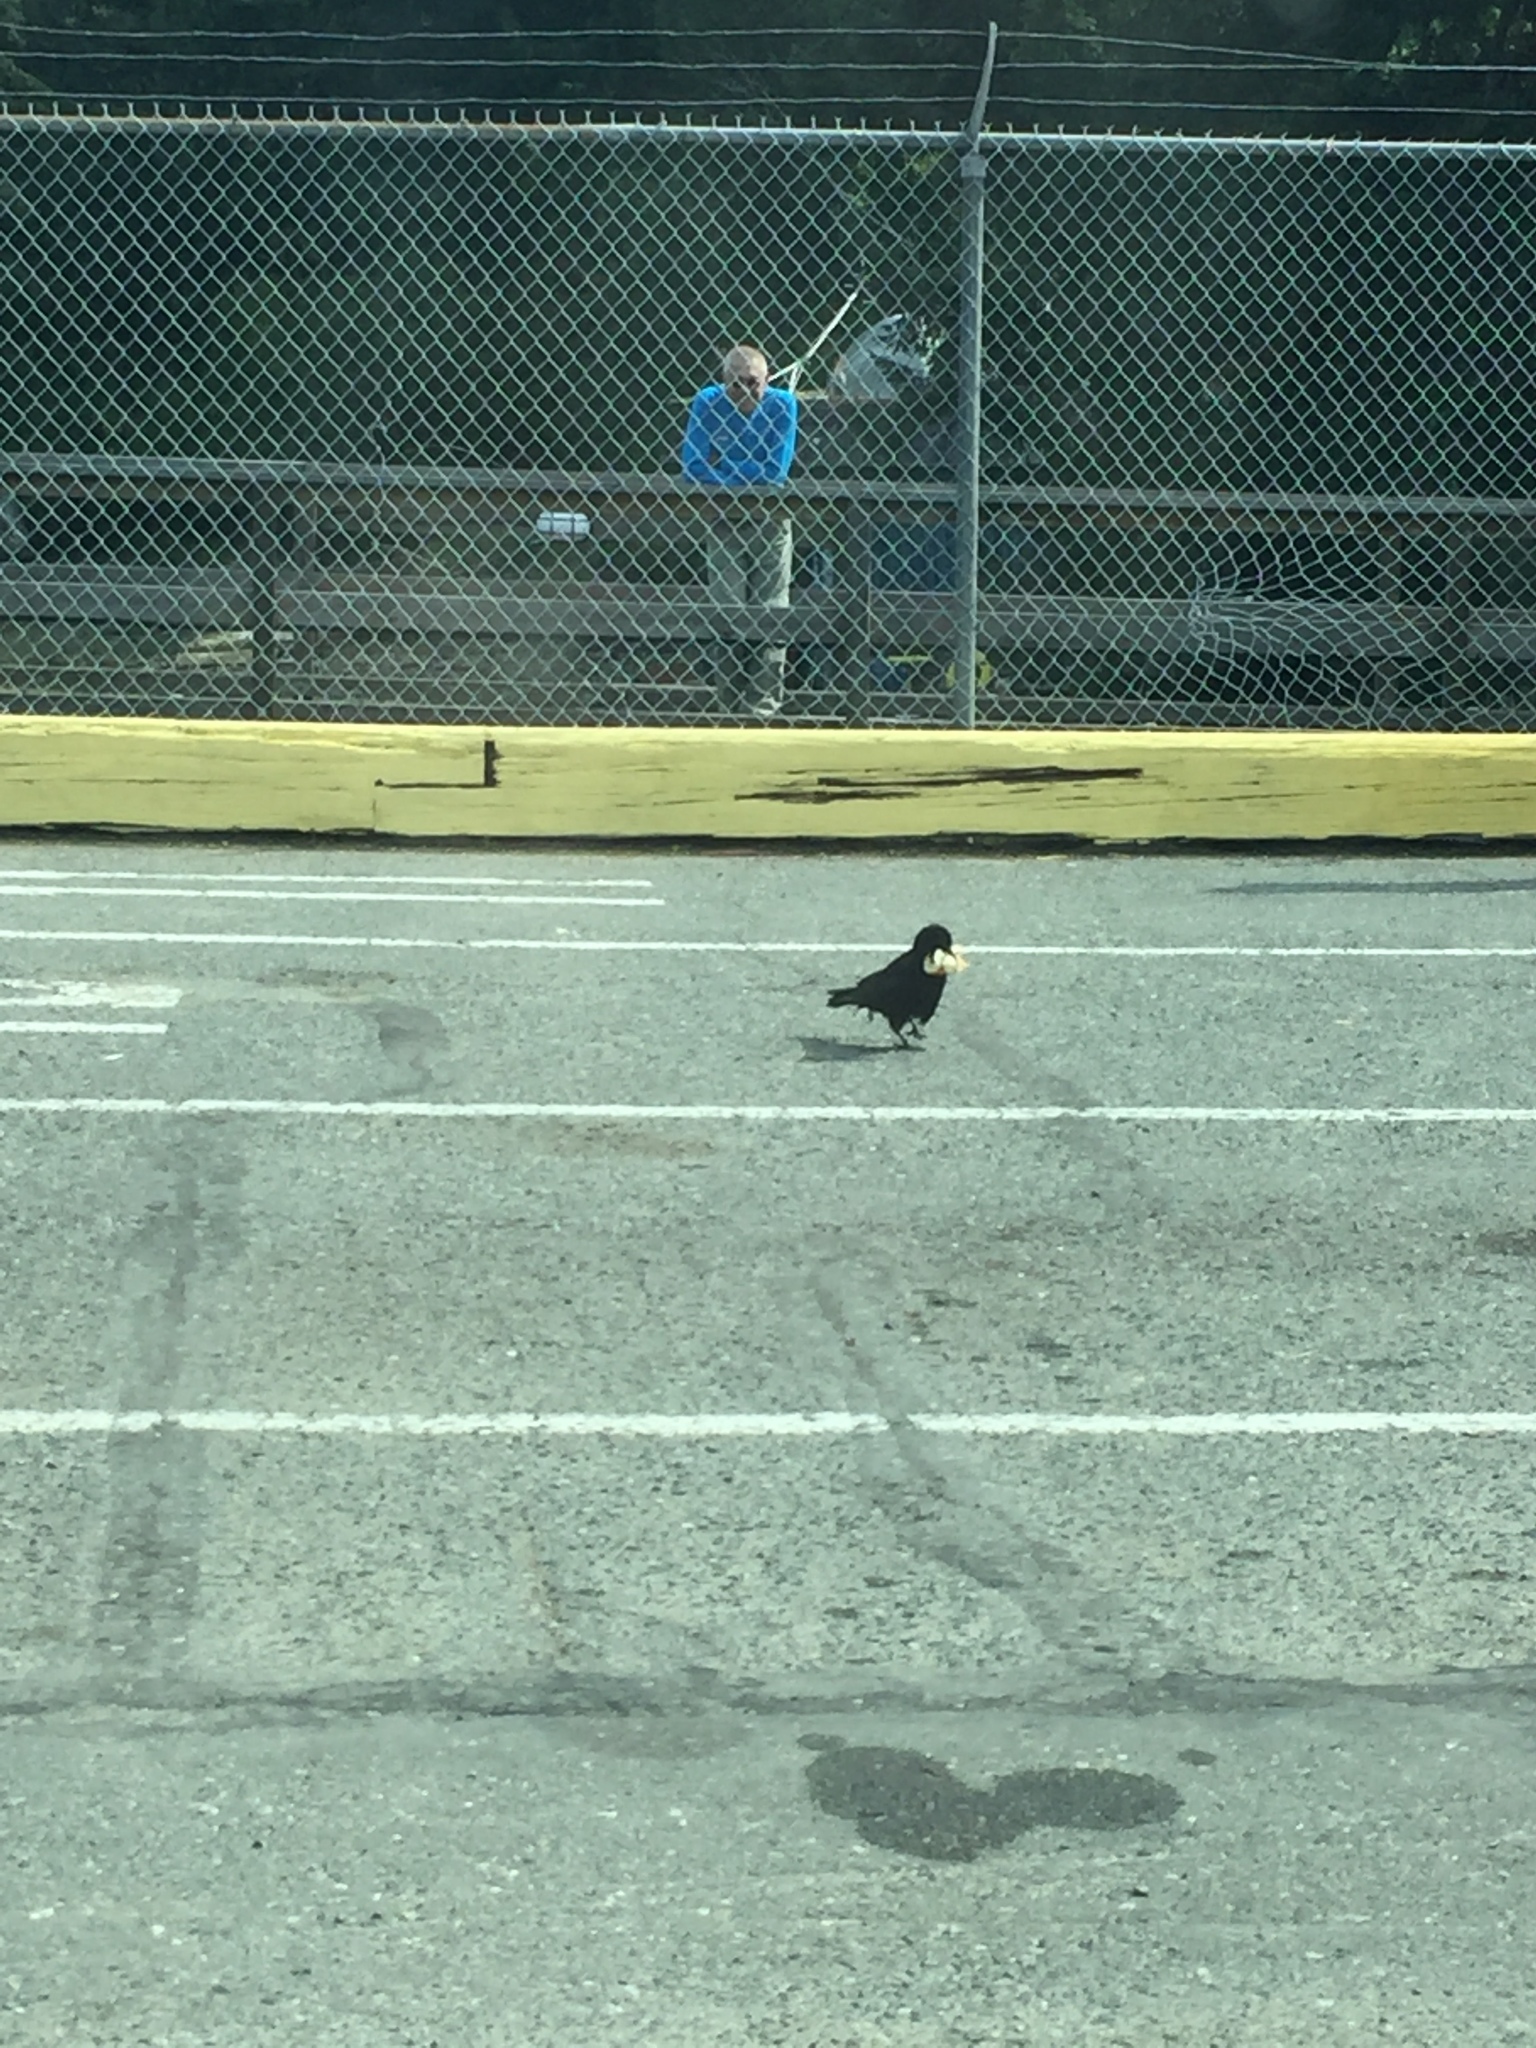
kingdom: Animalia
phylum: Chordata
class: Aves
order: Passeriformes
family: Corvidae
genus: Corvus
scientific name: Corvus brachyrhynchos
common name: American crow
